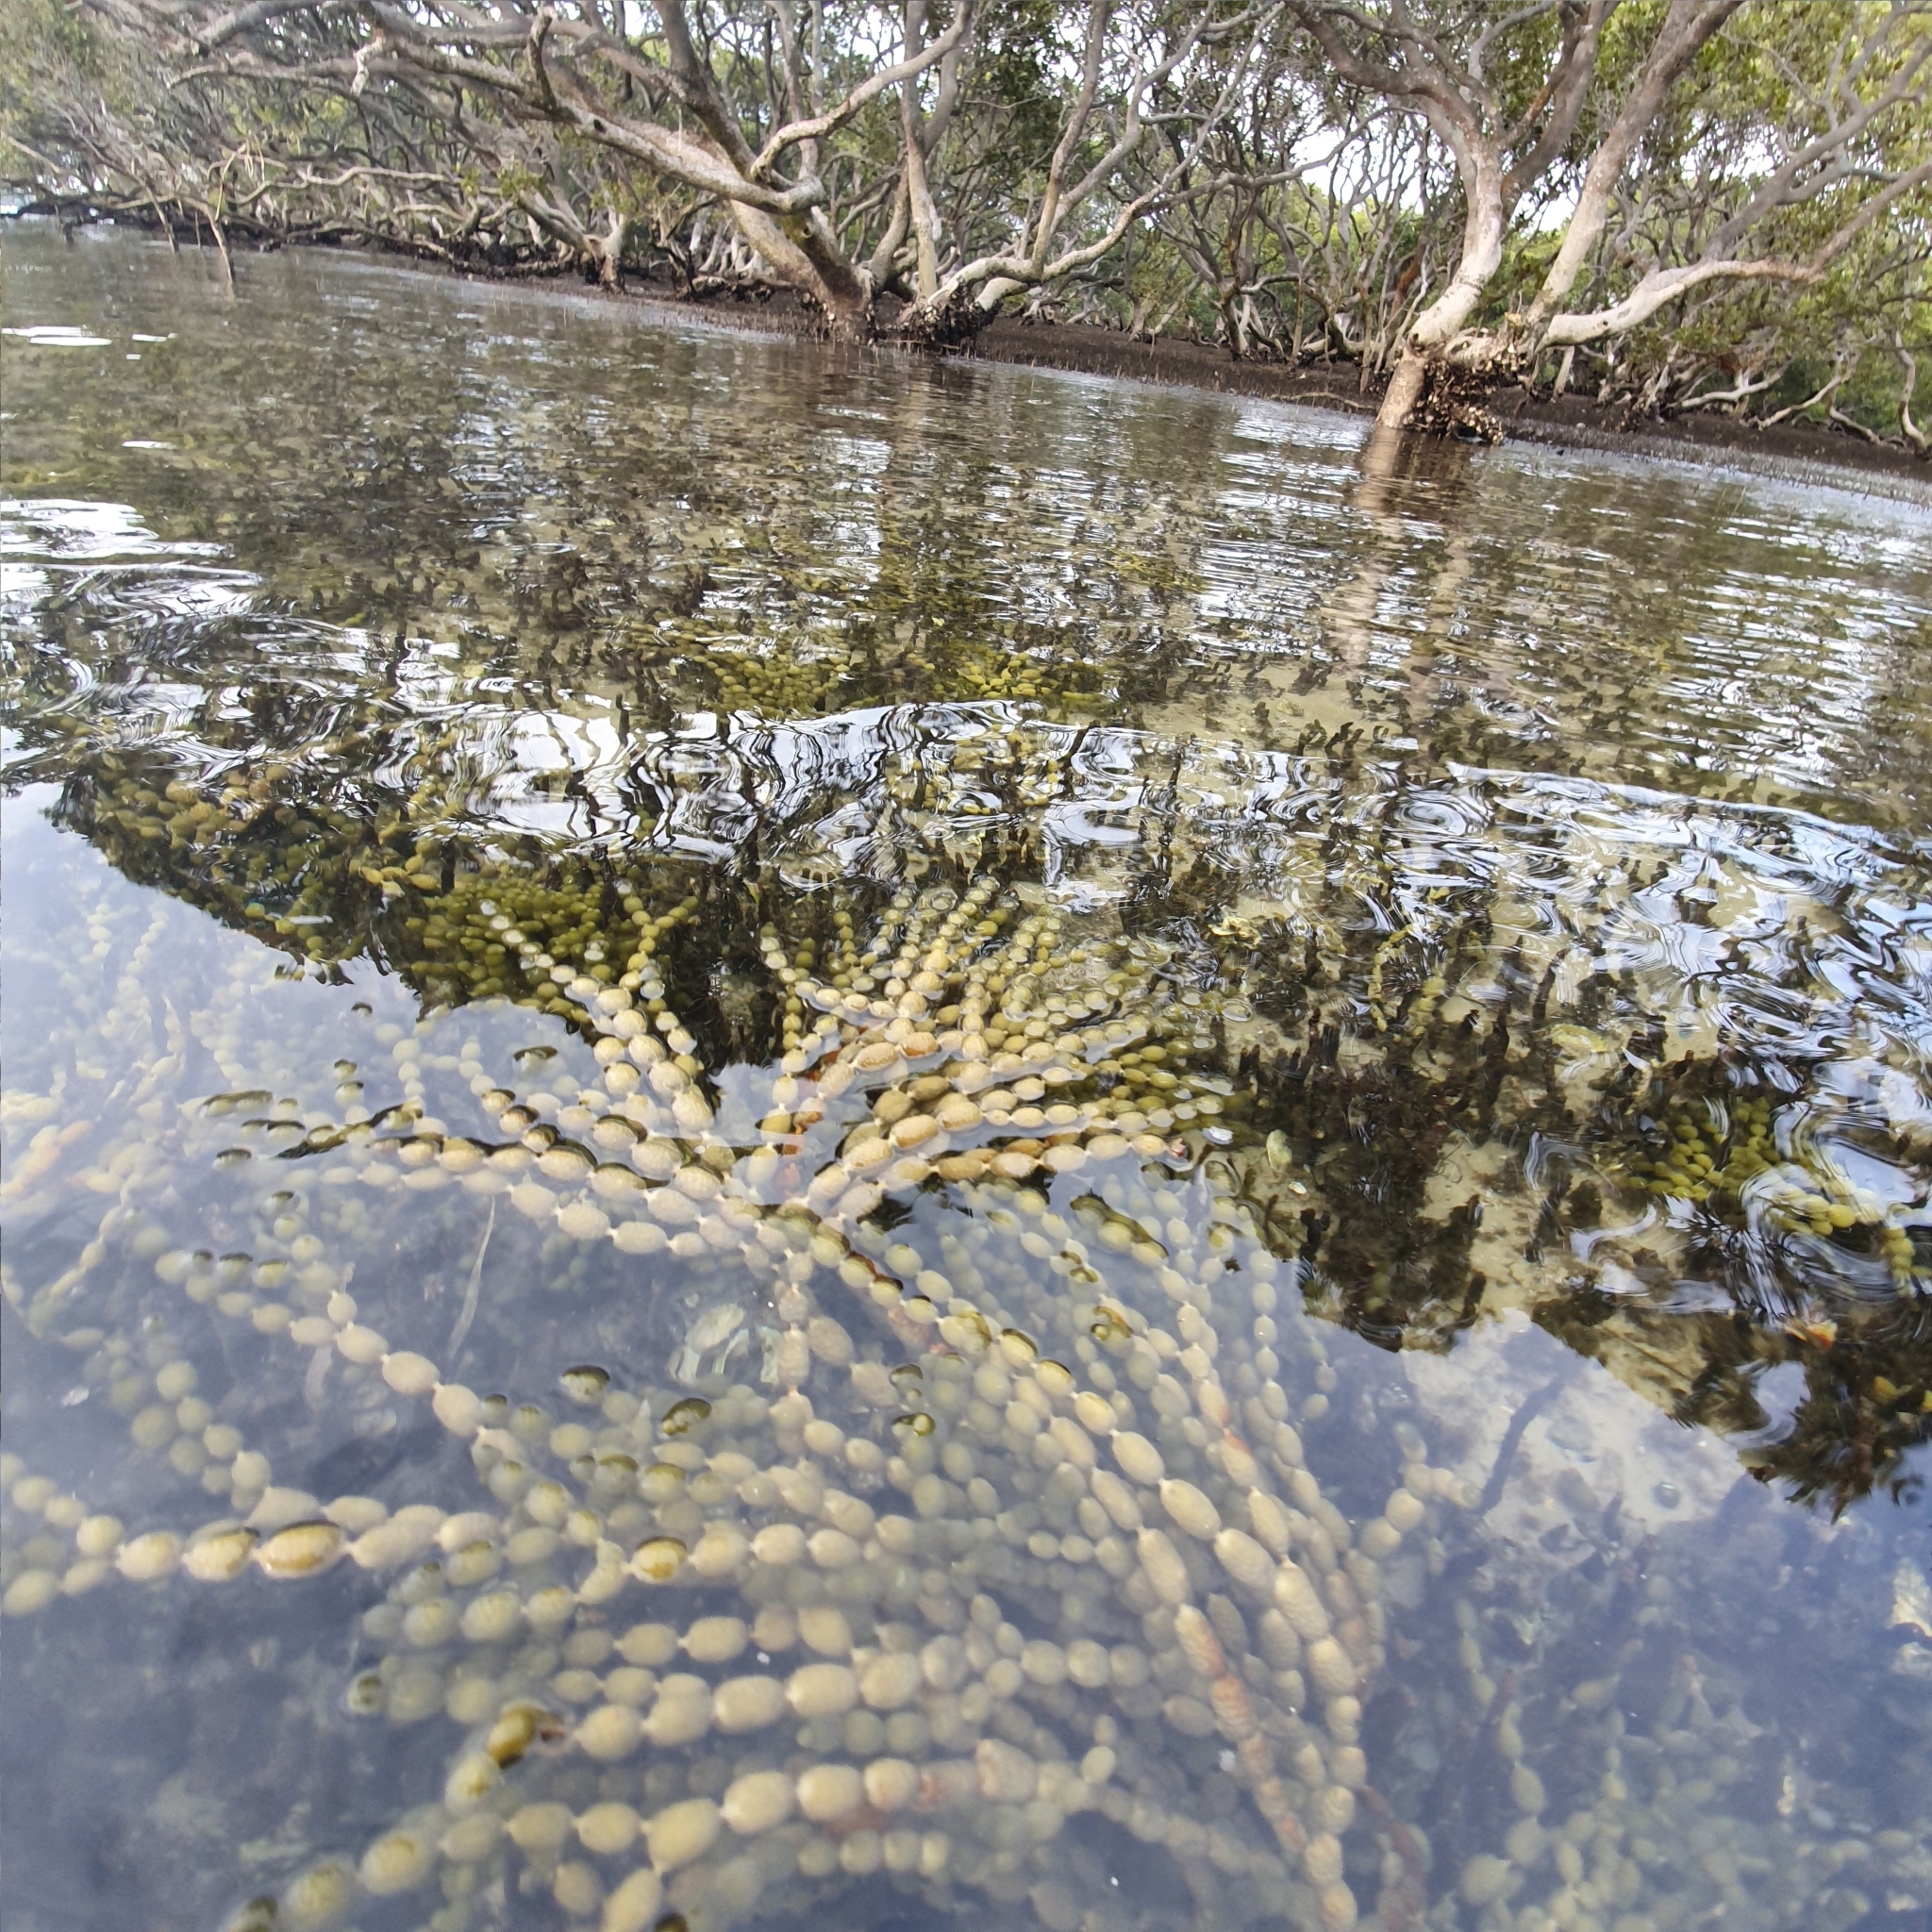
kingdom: Chromista
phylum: Ochrophyta
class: Phaeophyceae
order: Fucales
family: Hormosiraceae
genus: Hormosira
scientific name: Hormosira banksii
